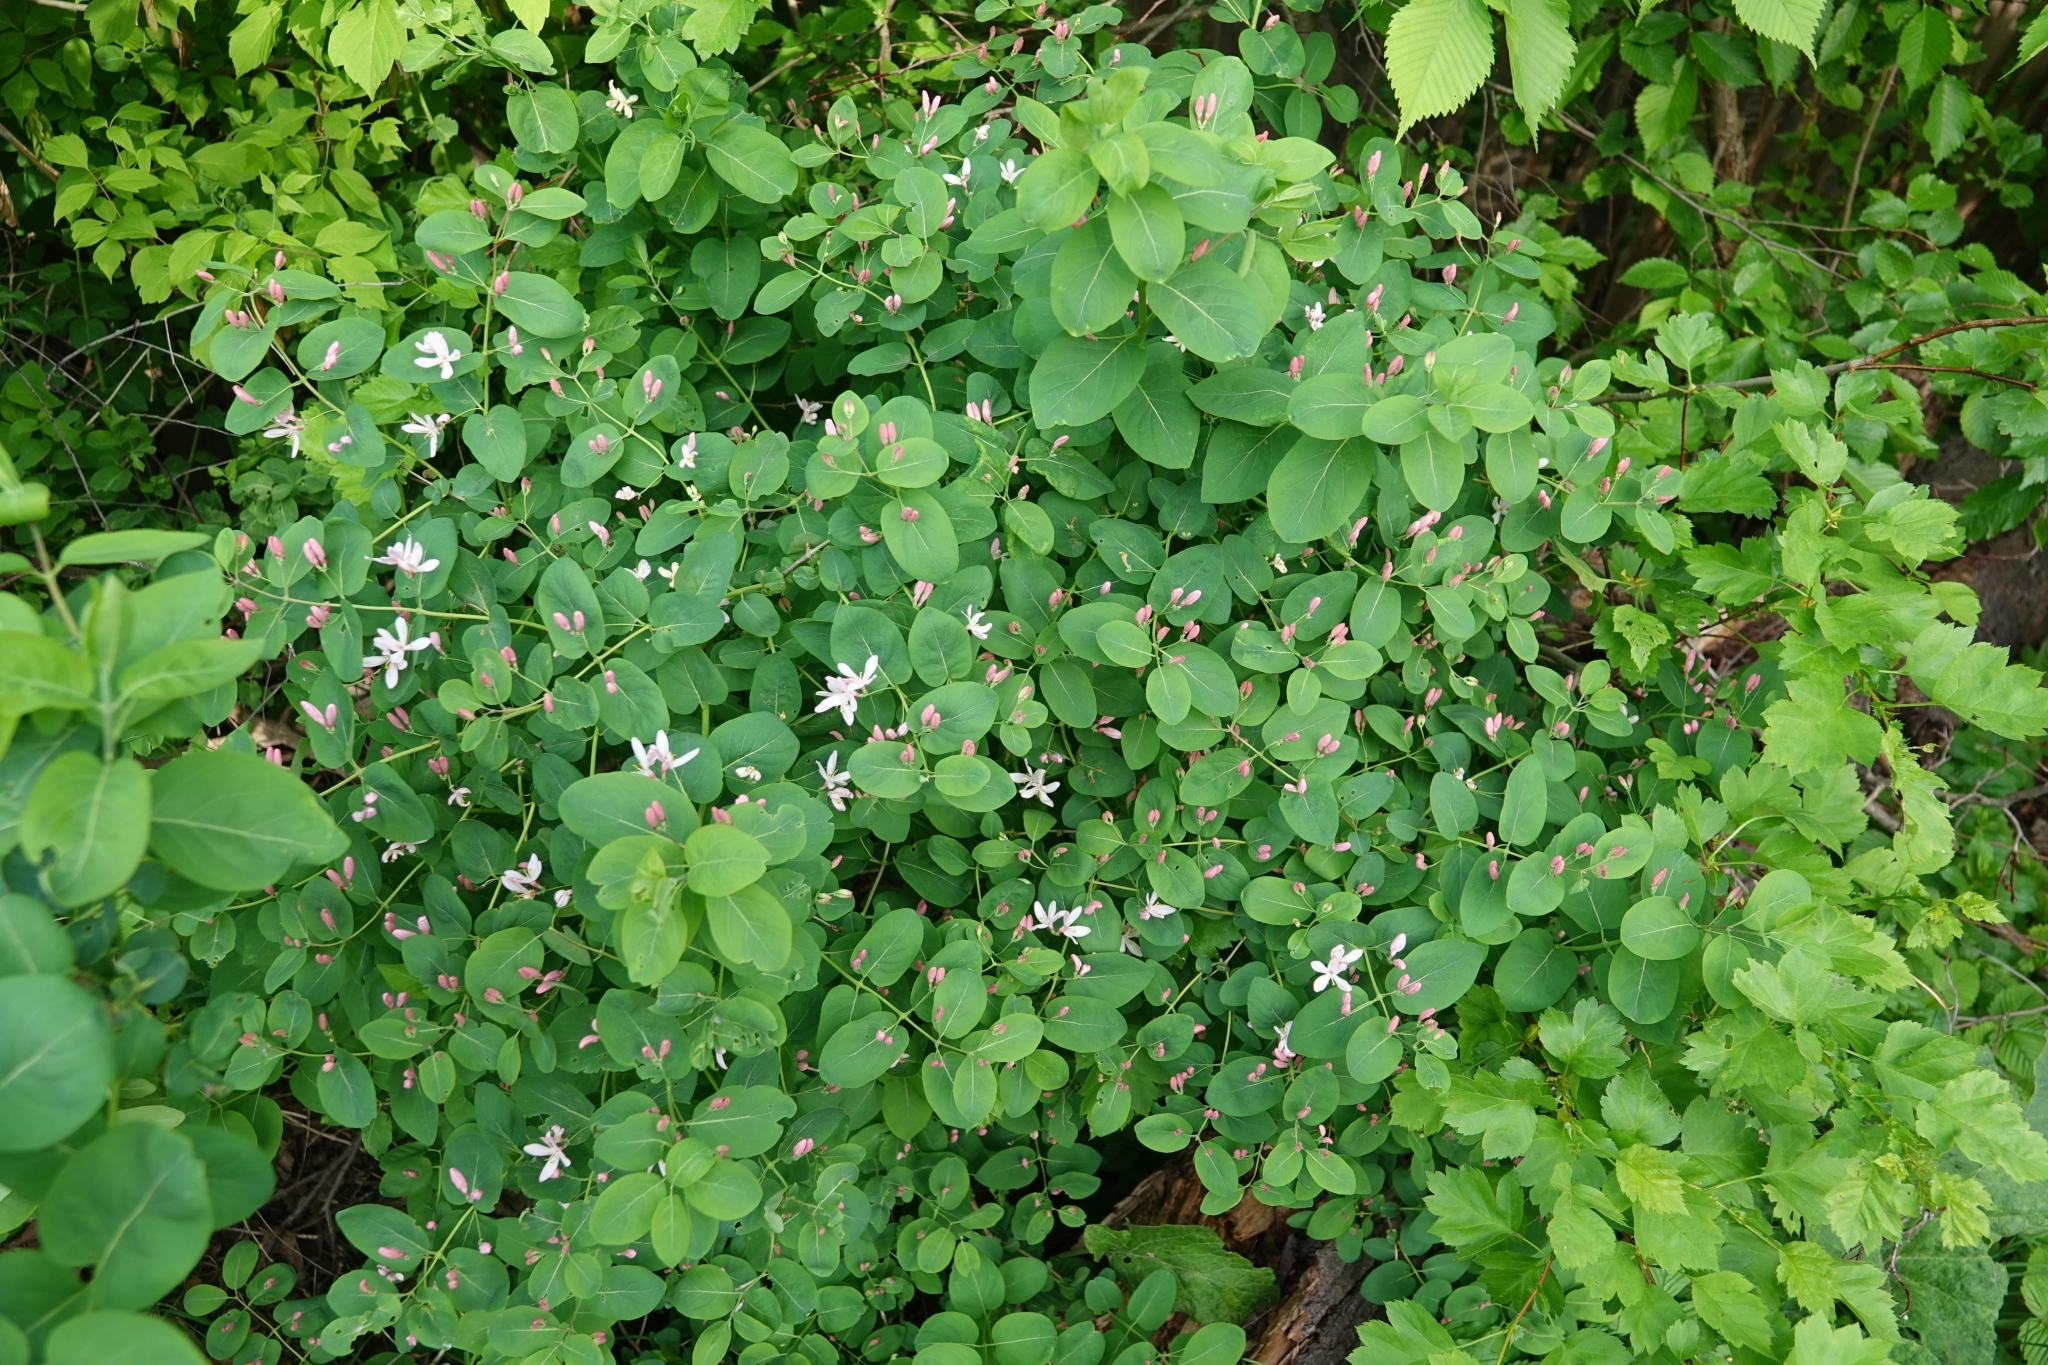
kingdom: Plantae
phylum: Tracheophyta
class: Magnoliopsida
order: Dipsacales
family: Caprifoliaceae
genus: Lonicera
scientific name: Lonicera tatarica
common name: Tatarian honeysuckle
